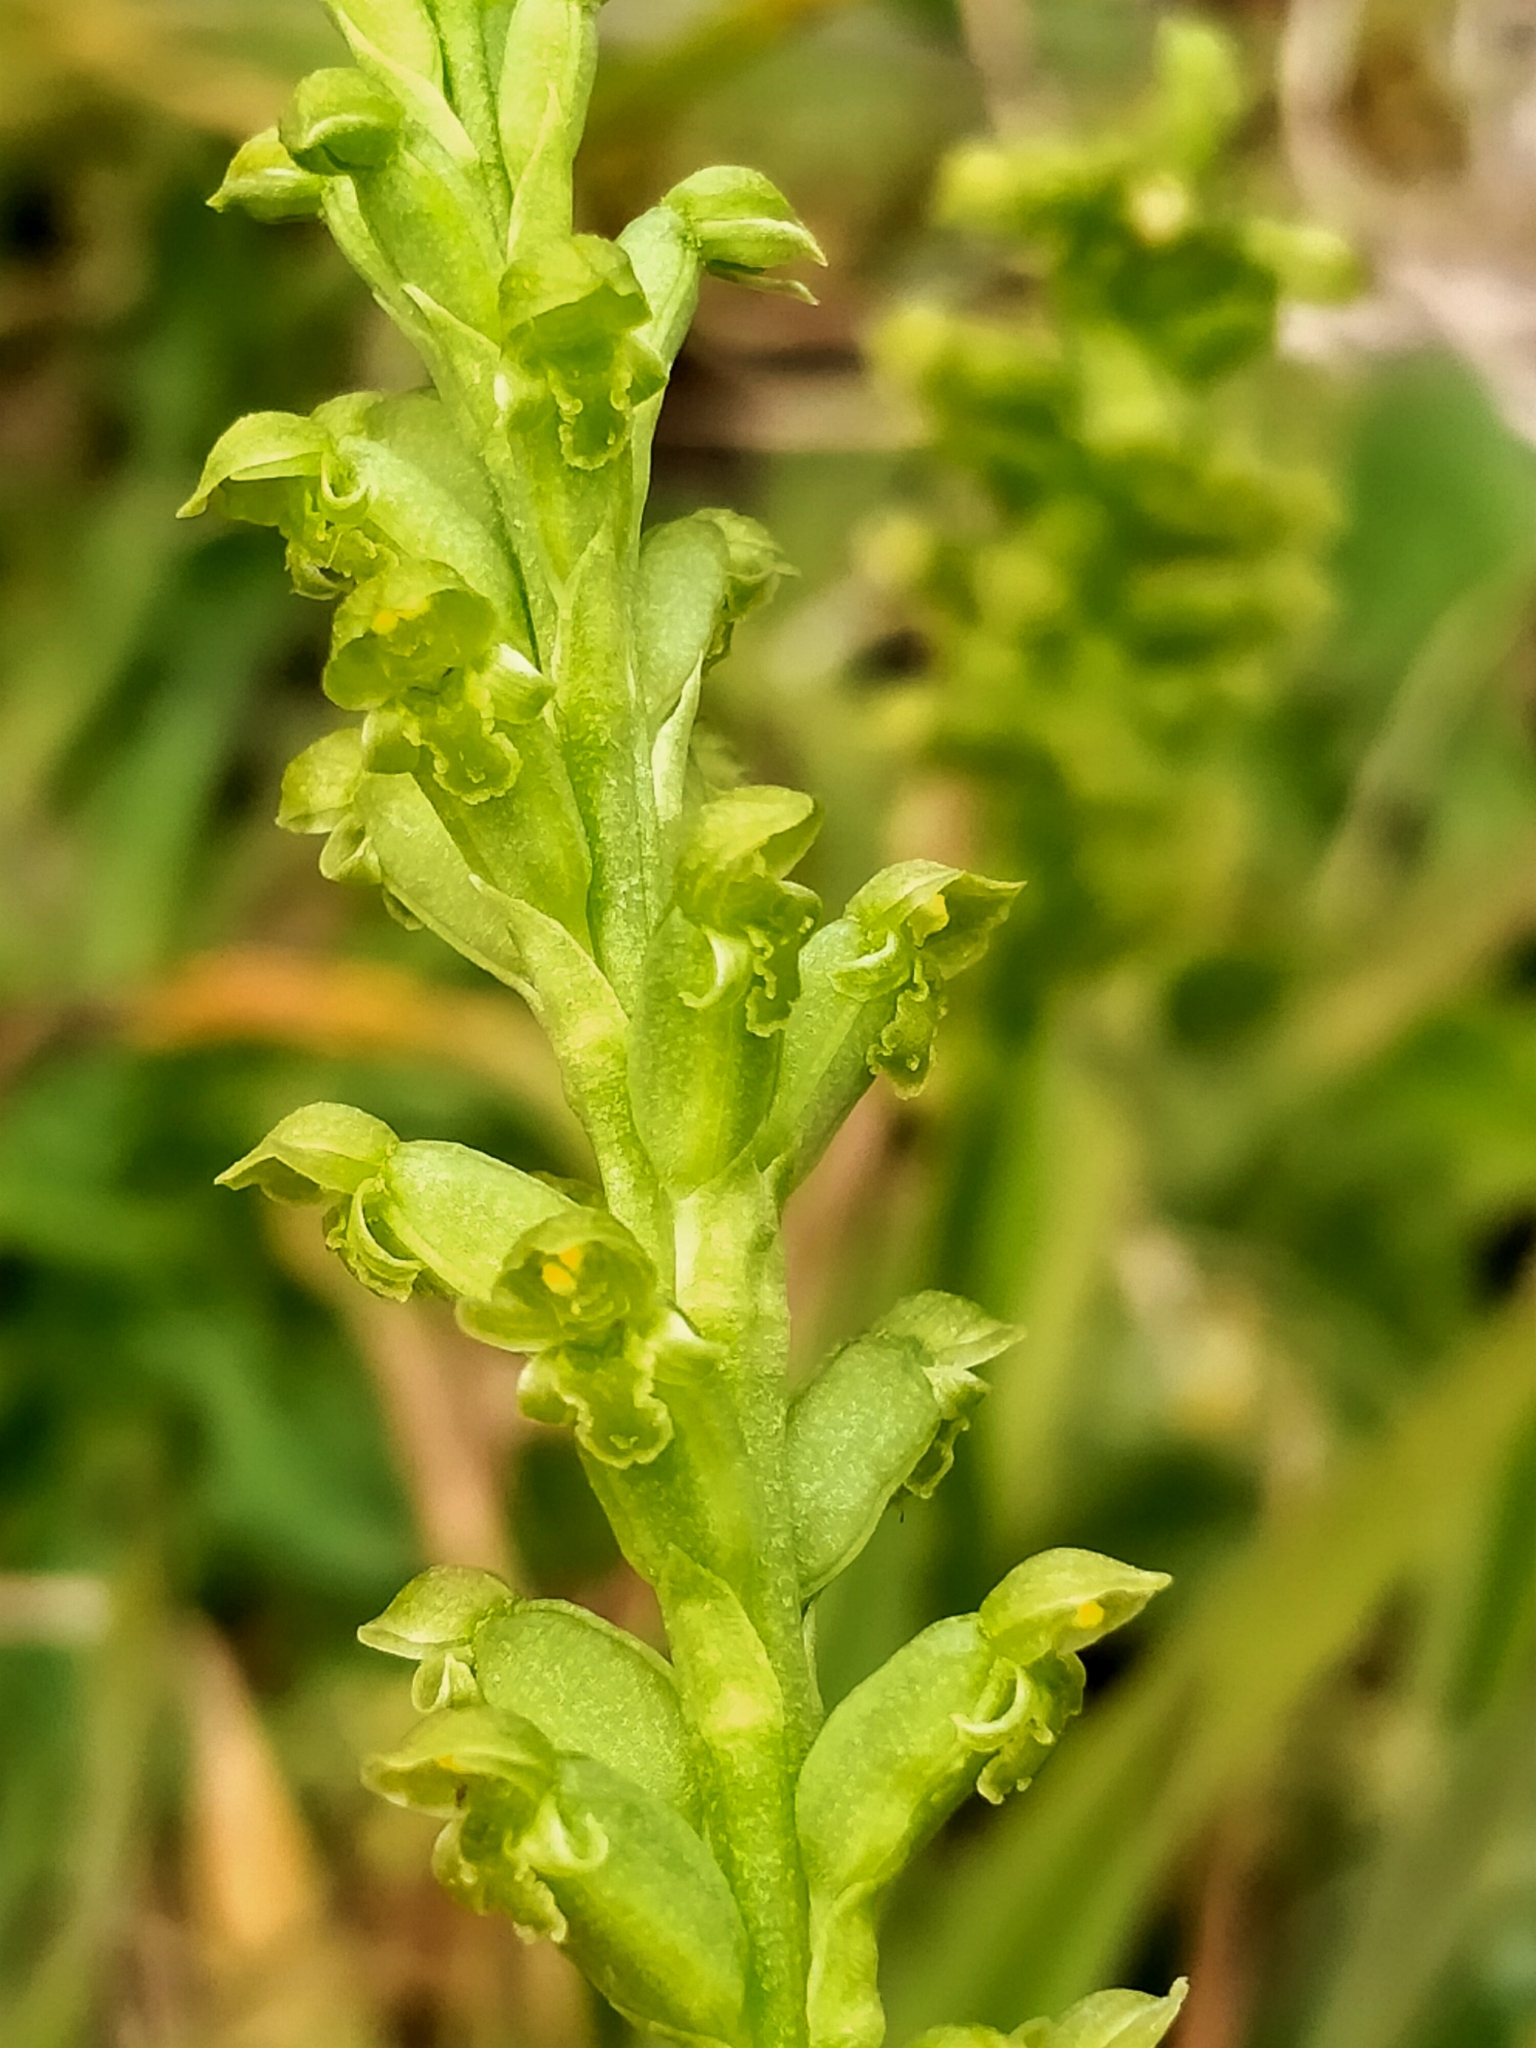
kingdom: Plantae
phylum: Tracheophyta
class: Liliopsida
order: Asparagales
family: Orchidaceae
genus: Microtis
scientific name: Microtis unifolia
